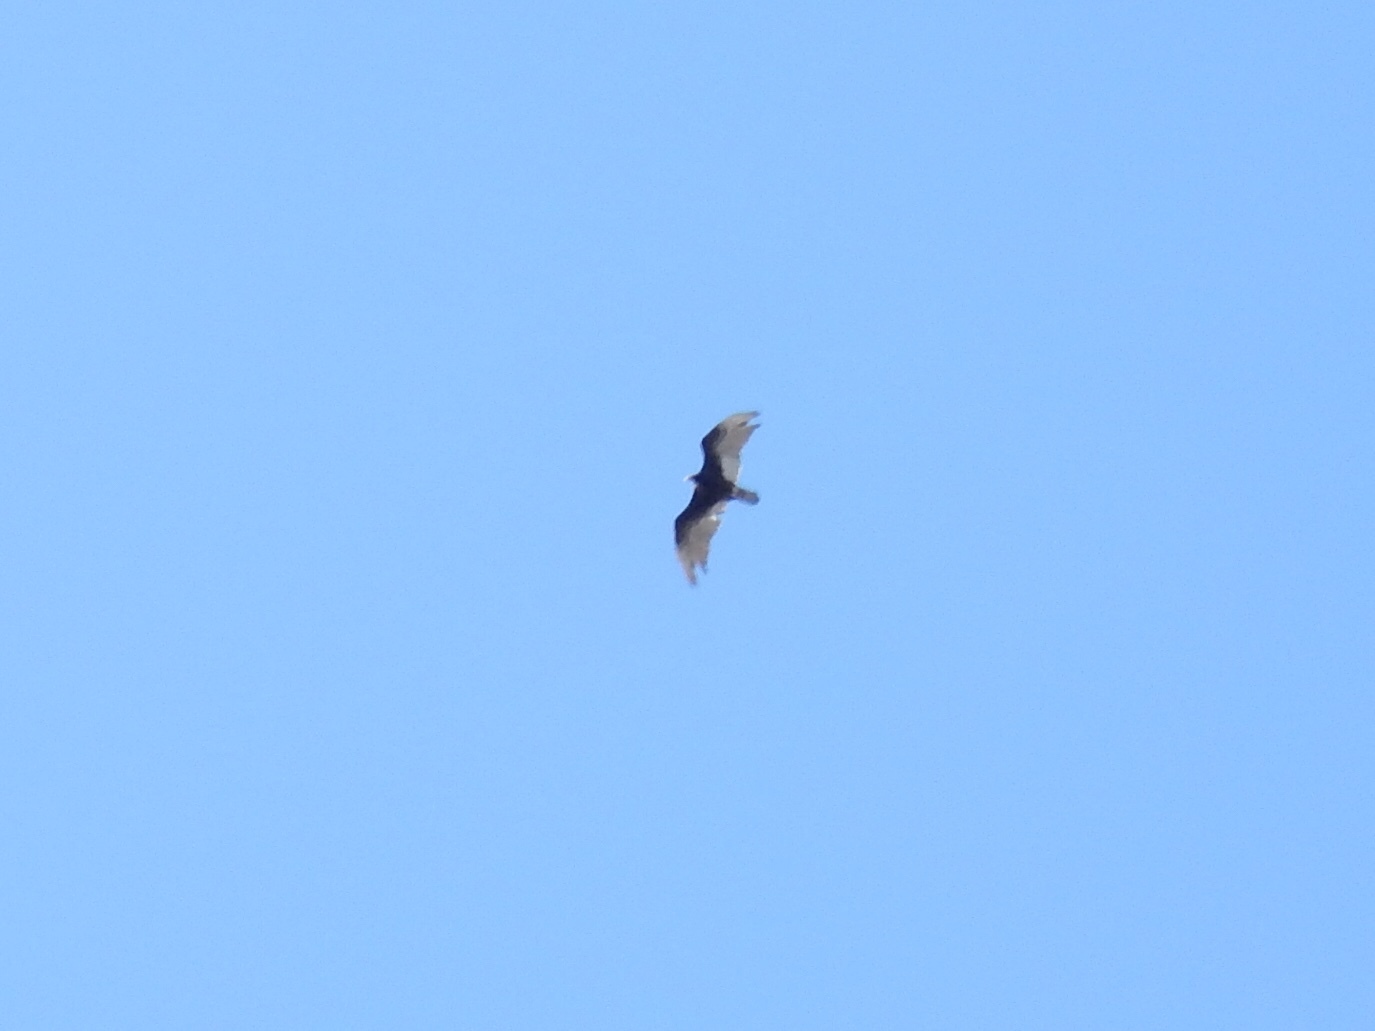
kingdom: Animalia
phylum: Chordata
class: Aves
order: Accipitriformes
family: Cathartidae
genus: Cathartes
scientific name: Cathartes aura
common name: Turkey vulture
